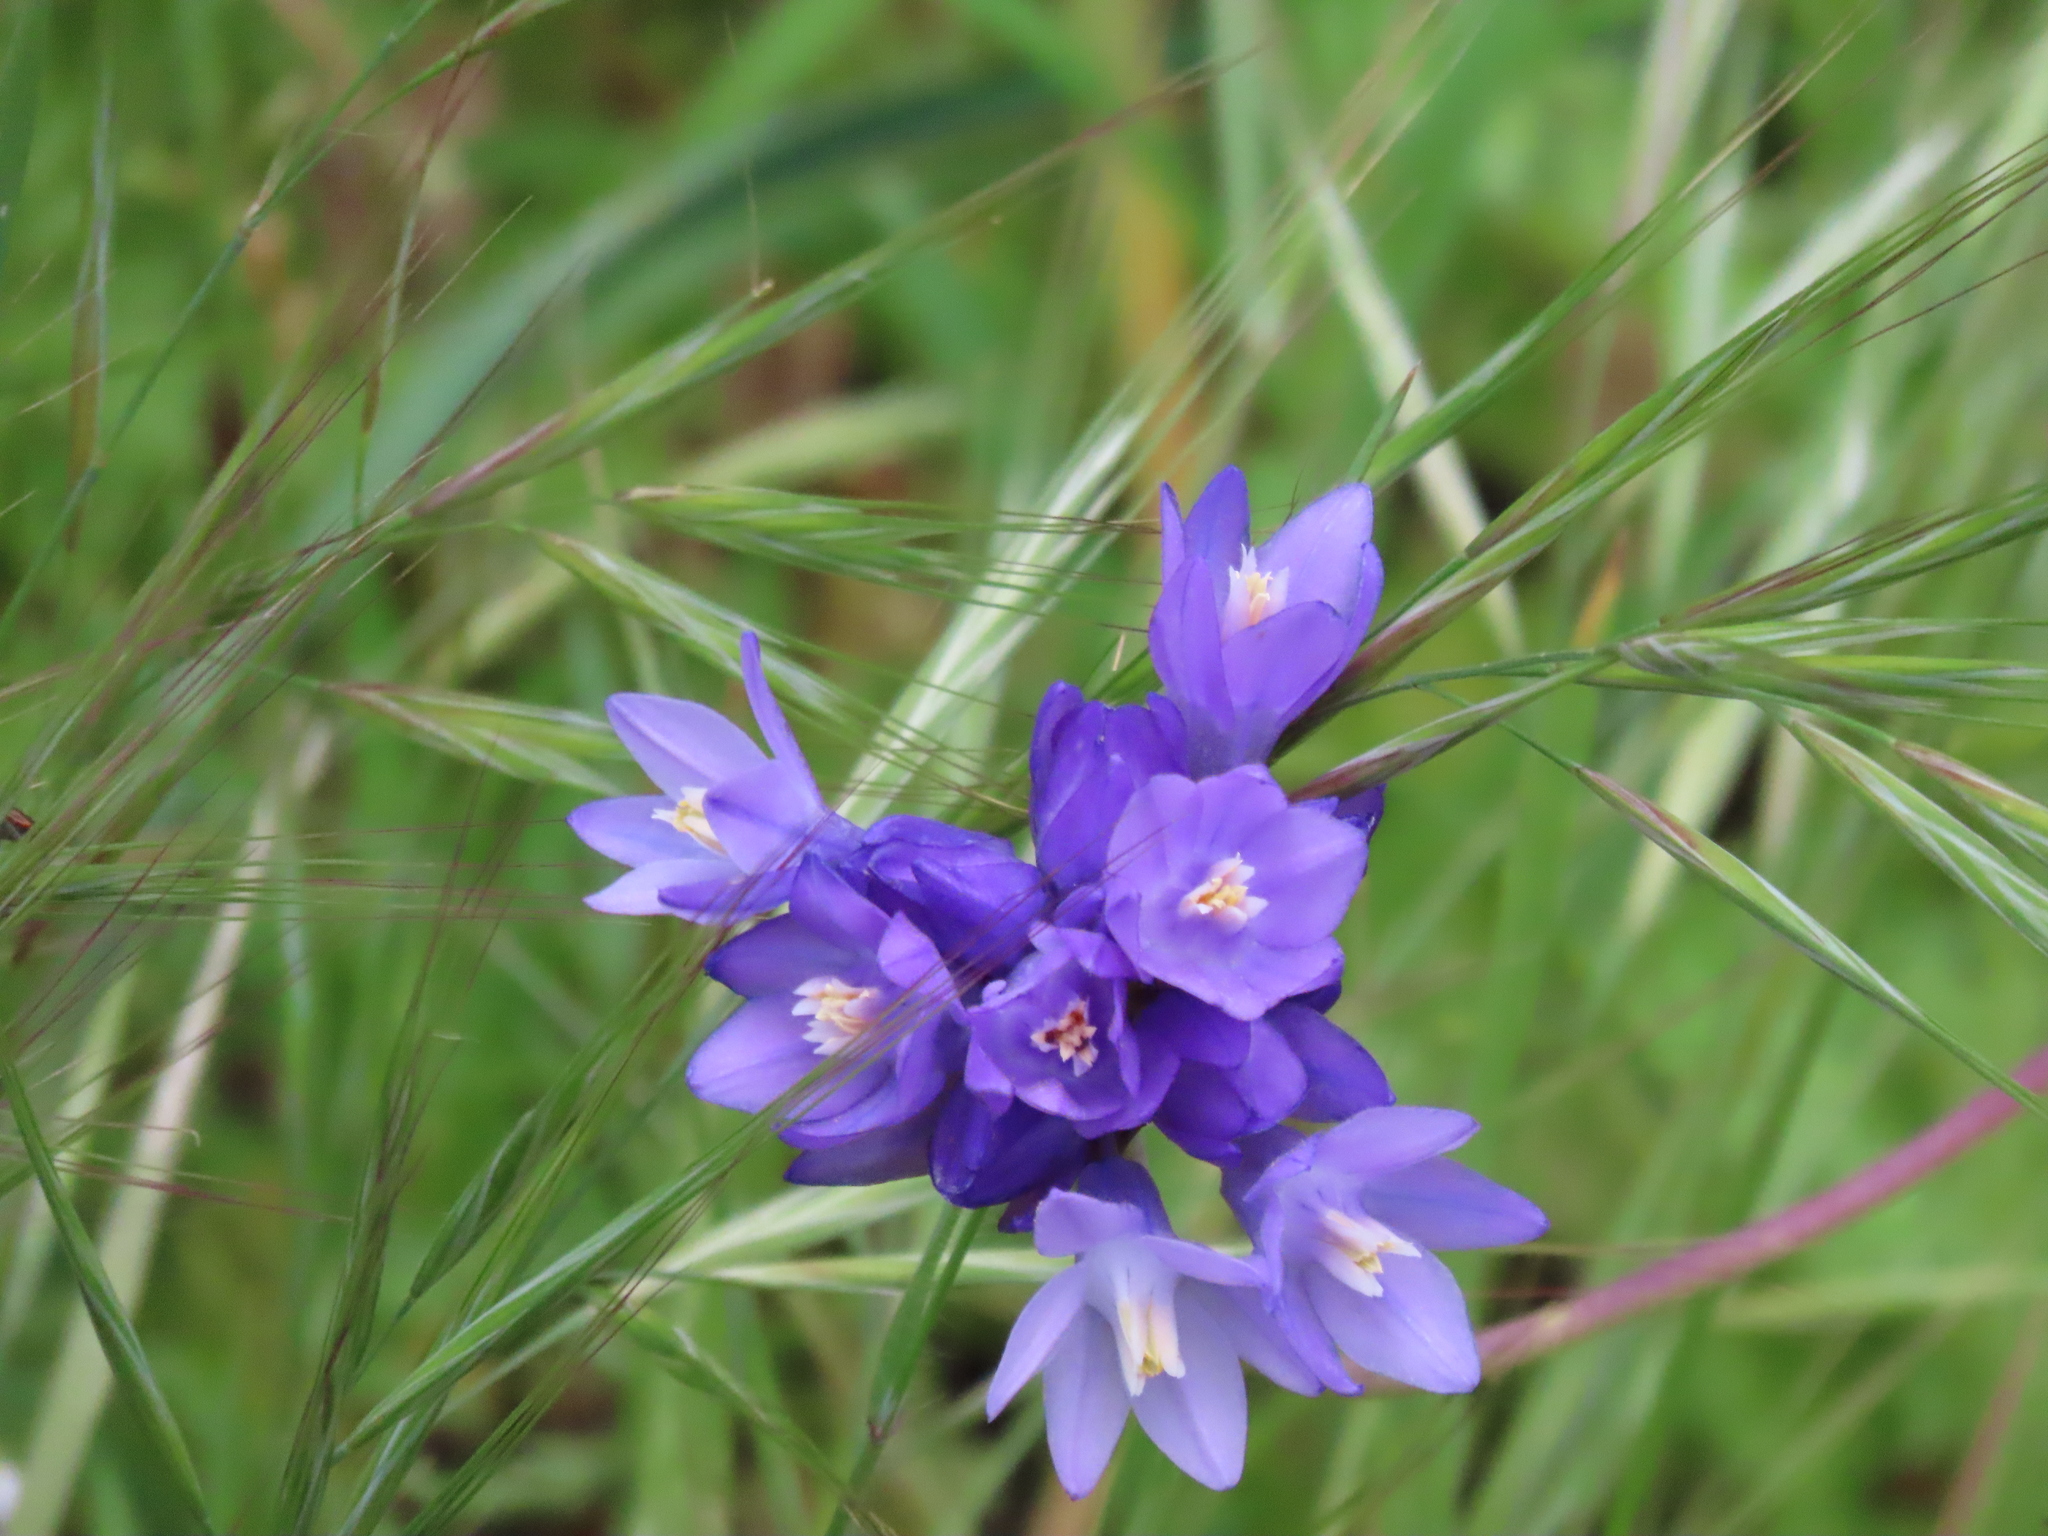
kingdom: Plantae
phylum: Tracheophyta
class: Liliopsida
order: Asparagales
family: Asparagaceae
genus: Dipterostemon
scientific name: Dipterostemon capitatus
